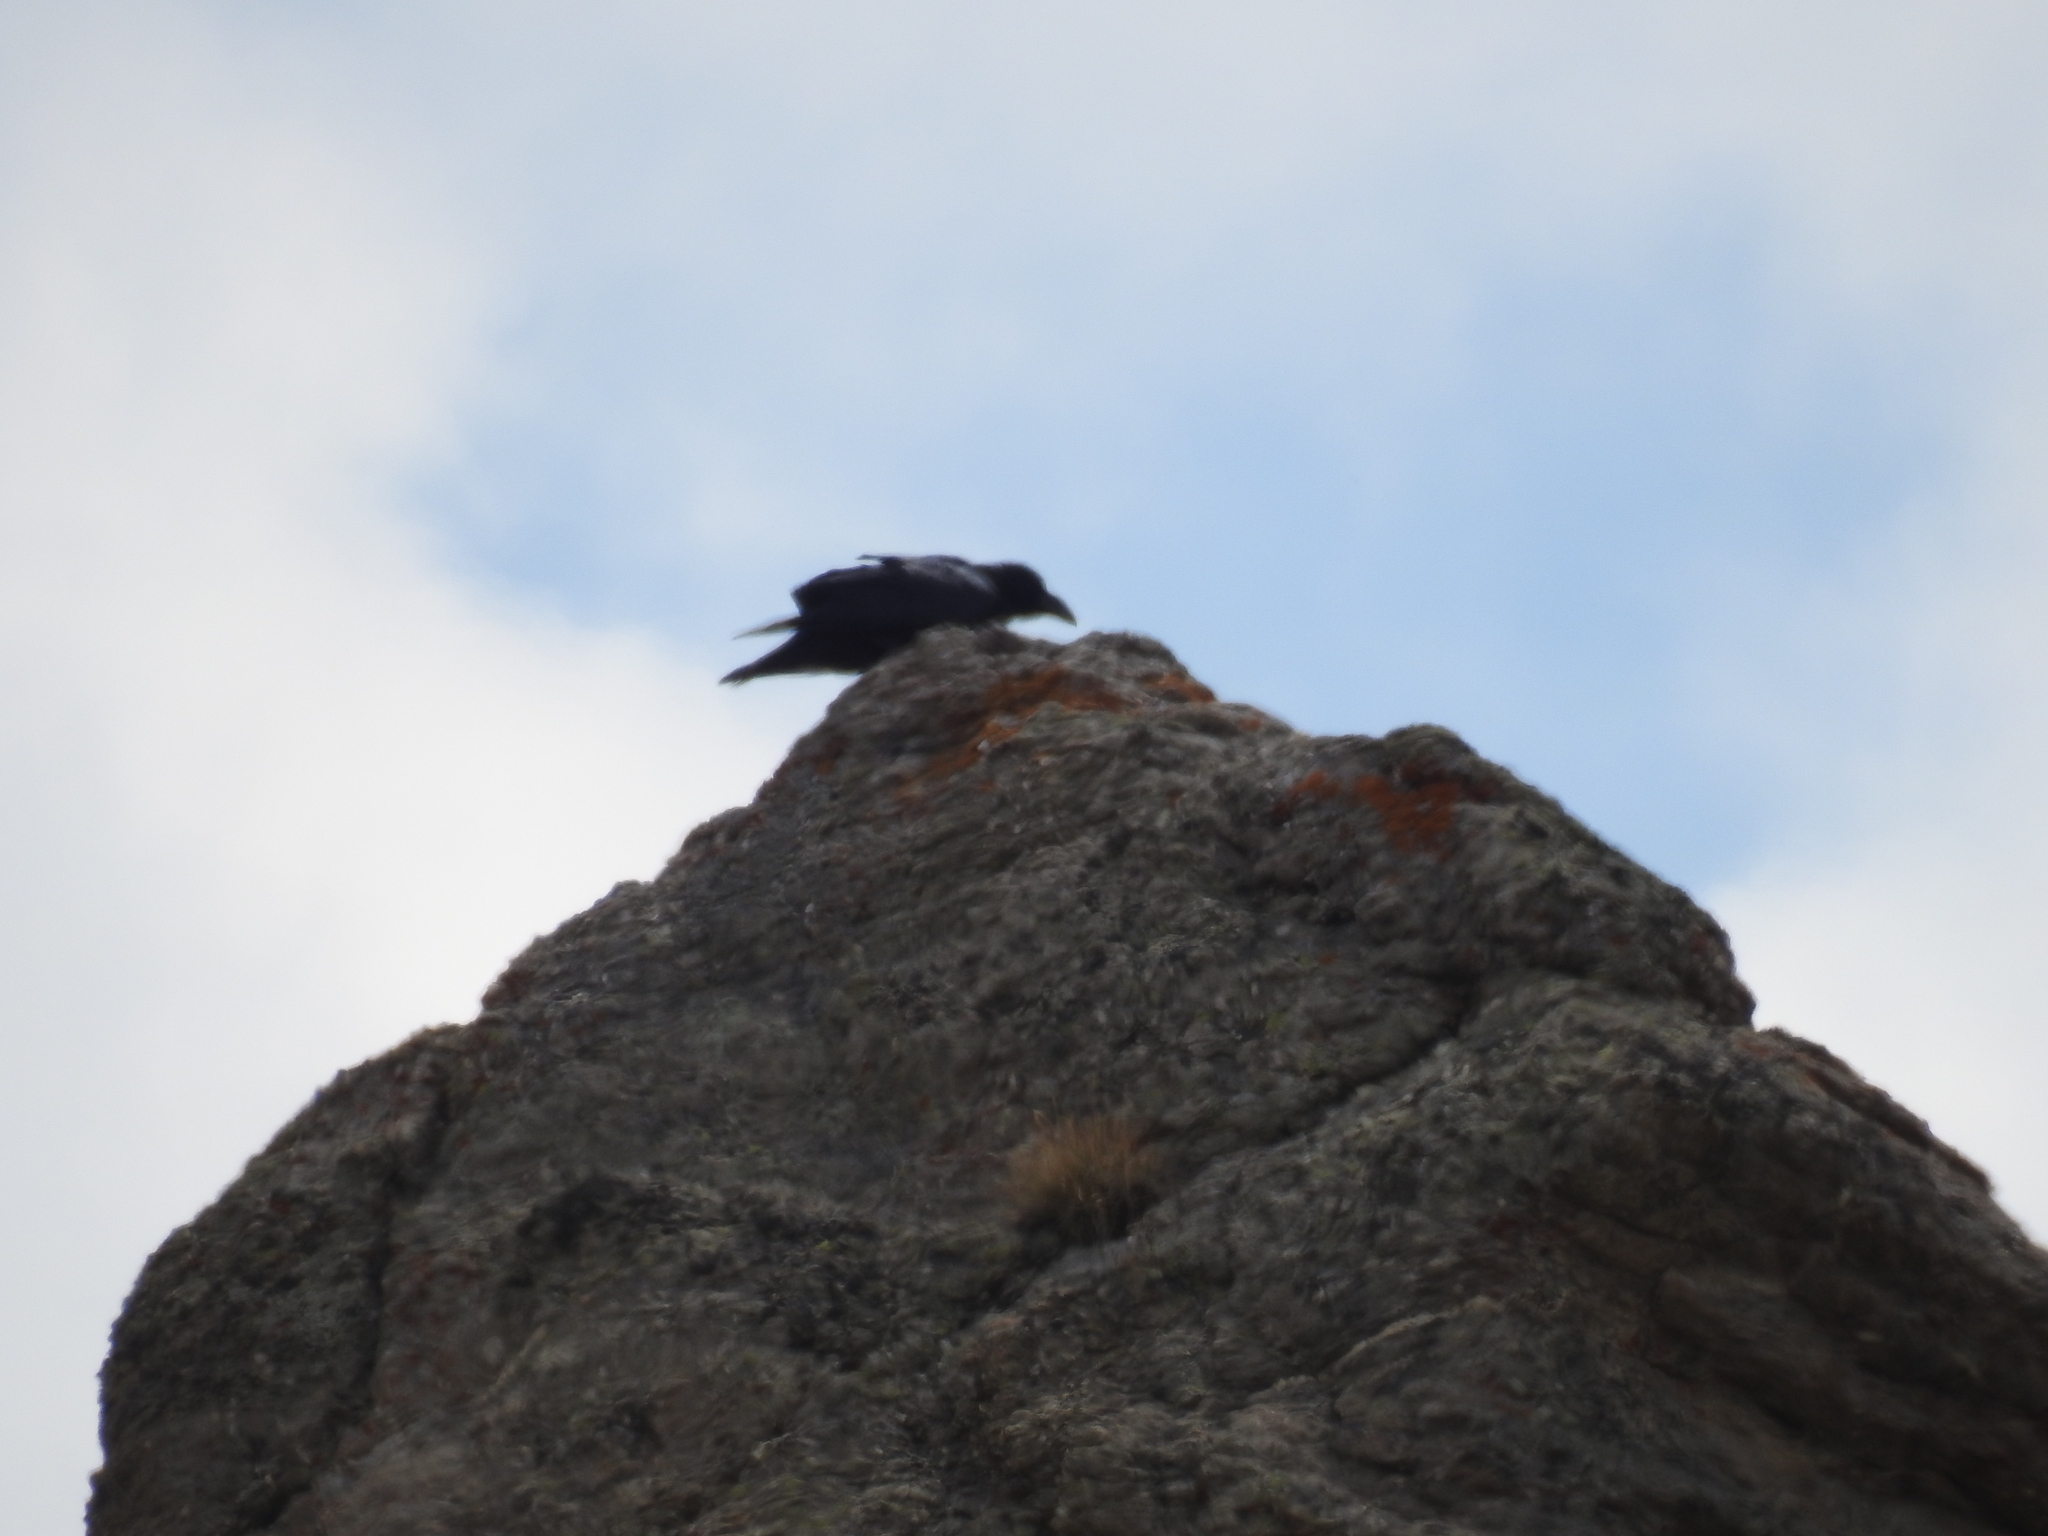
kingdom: Animalia
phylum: Chordata
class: Aves
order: Passeriformes
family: Corvidae
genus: Corvus
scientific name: Corvus corax
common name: Common raven
